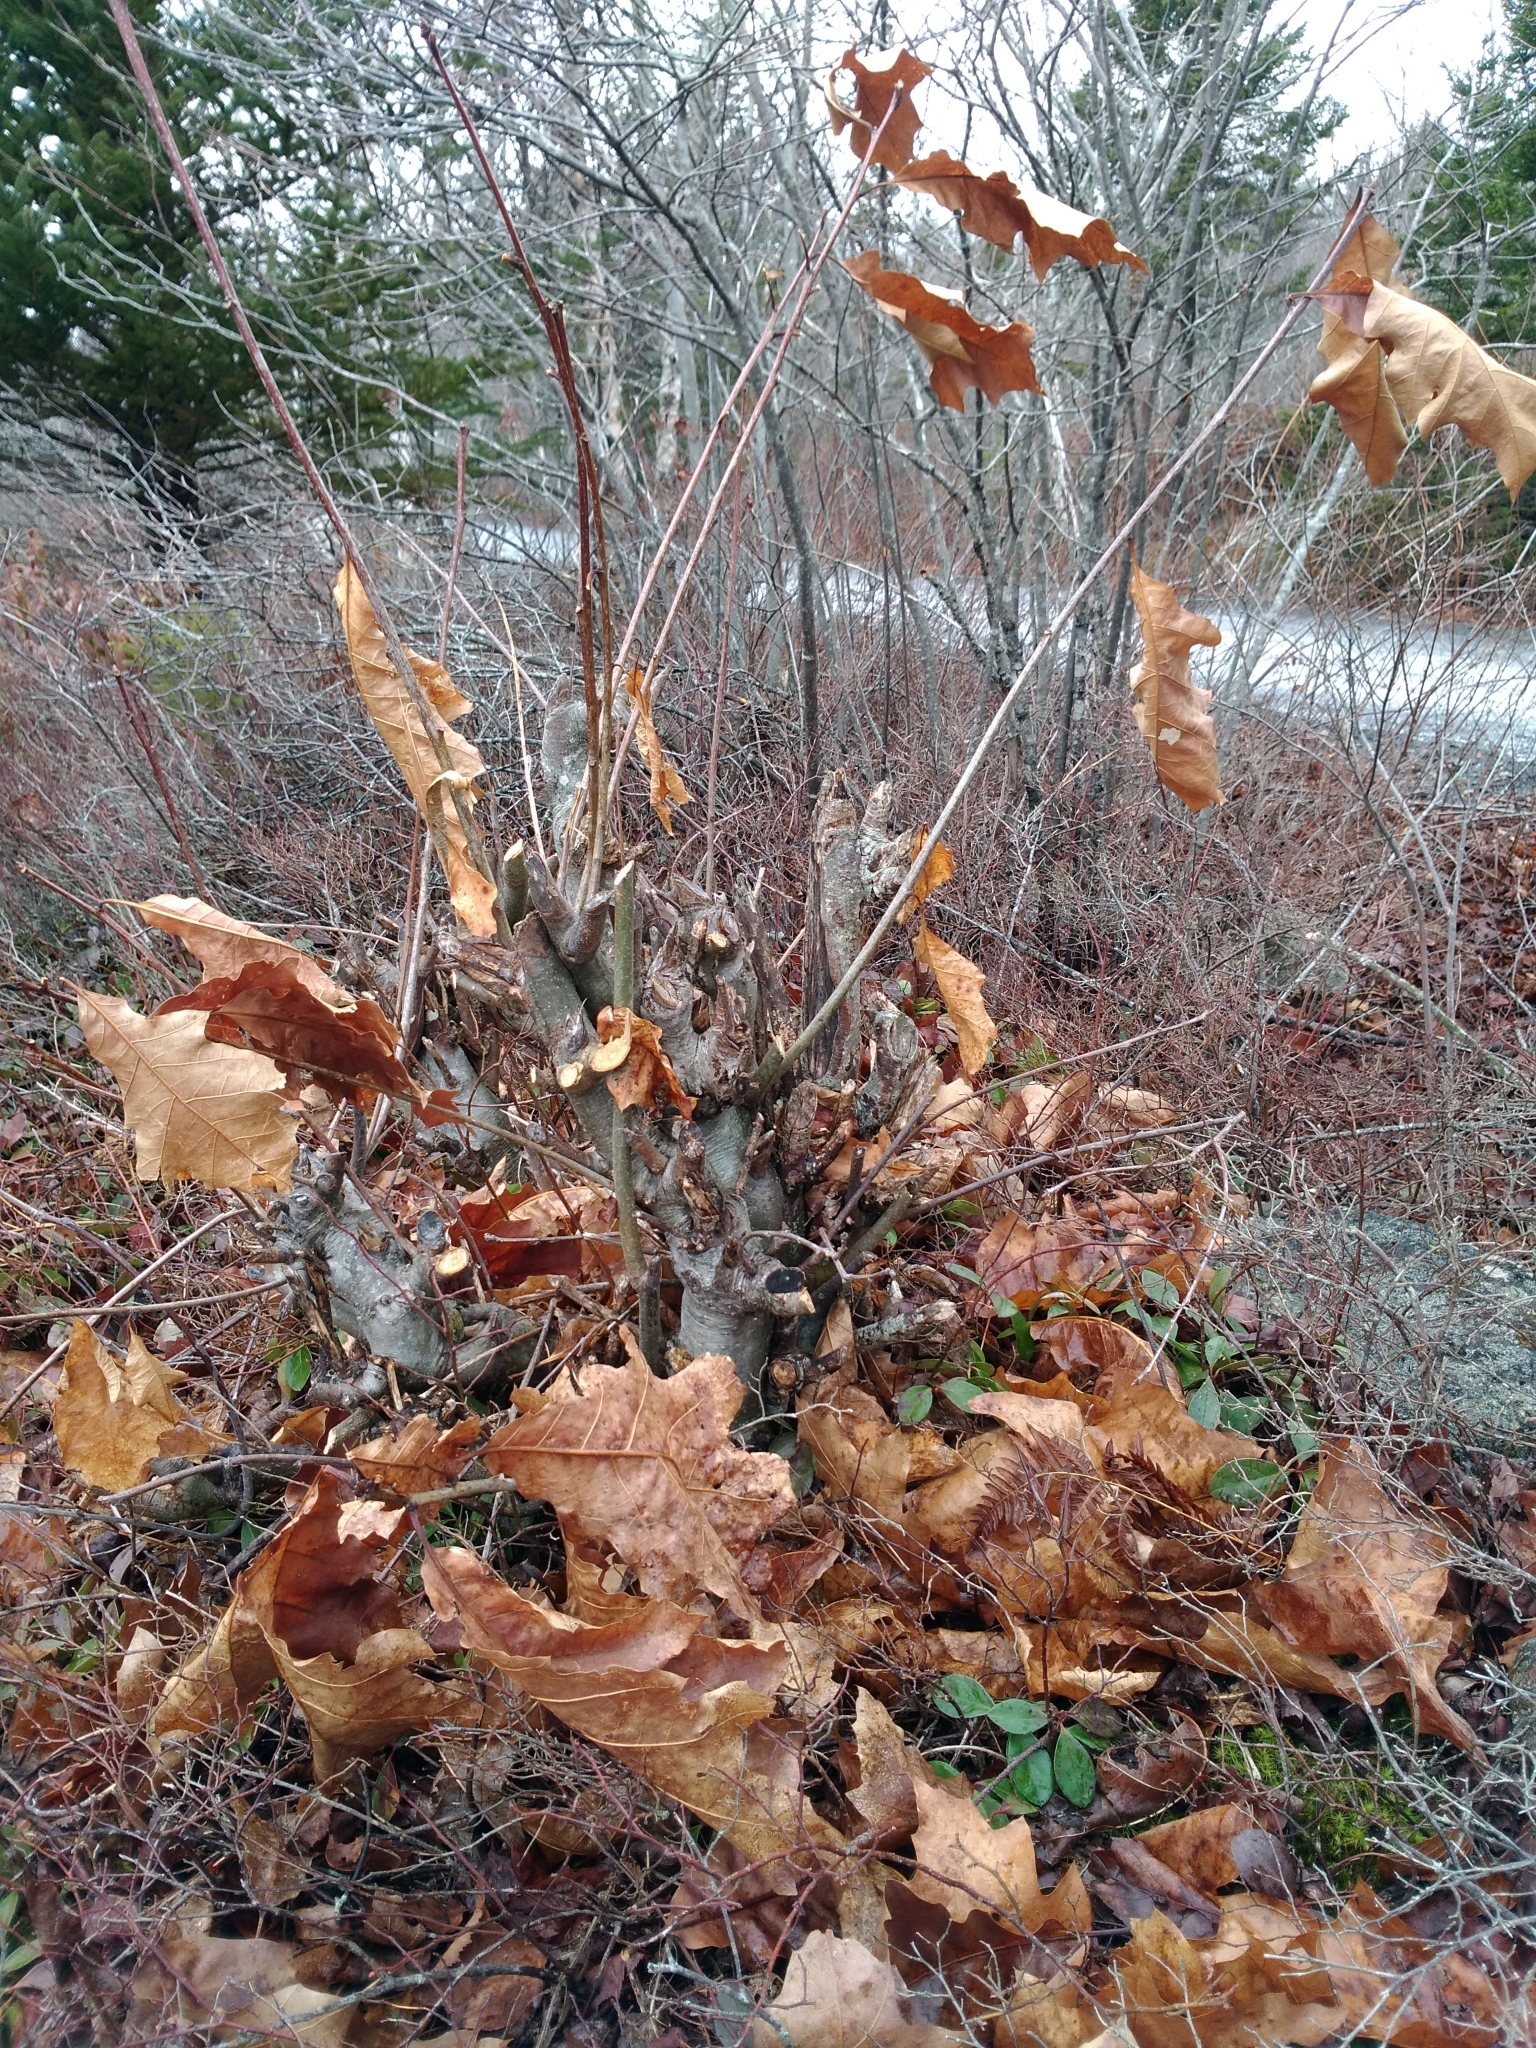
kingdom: Plantae
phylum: Tracheophyta
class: Magnoliopsida
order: Fagales
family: Fagaceae
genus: Quercus
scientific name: Quercus rubra
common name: Red oak
